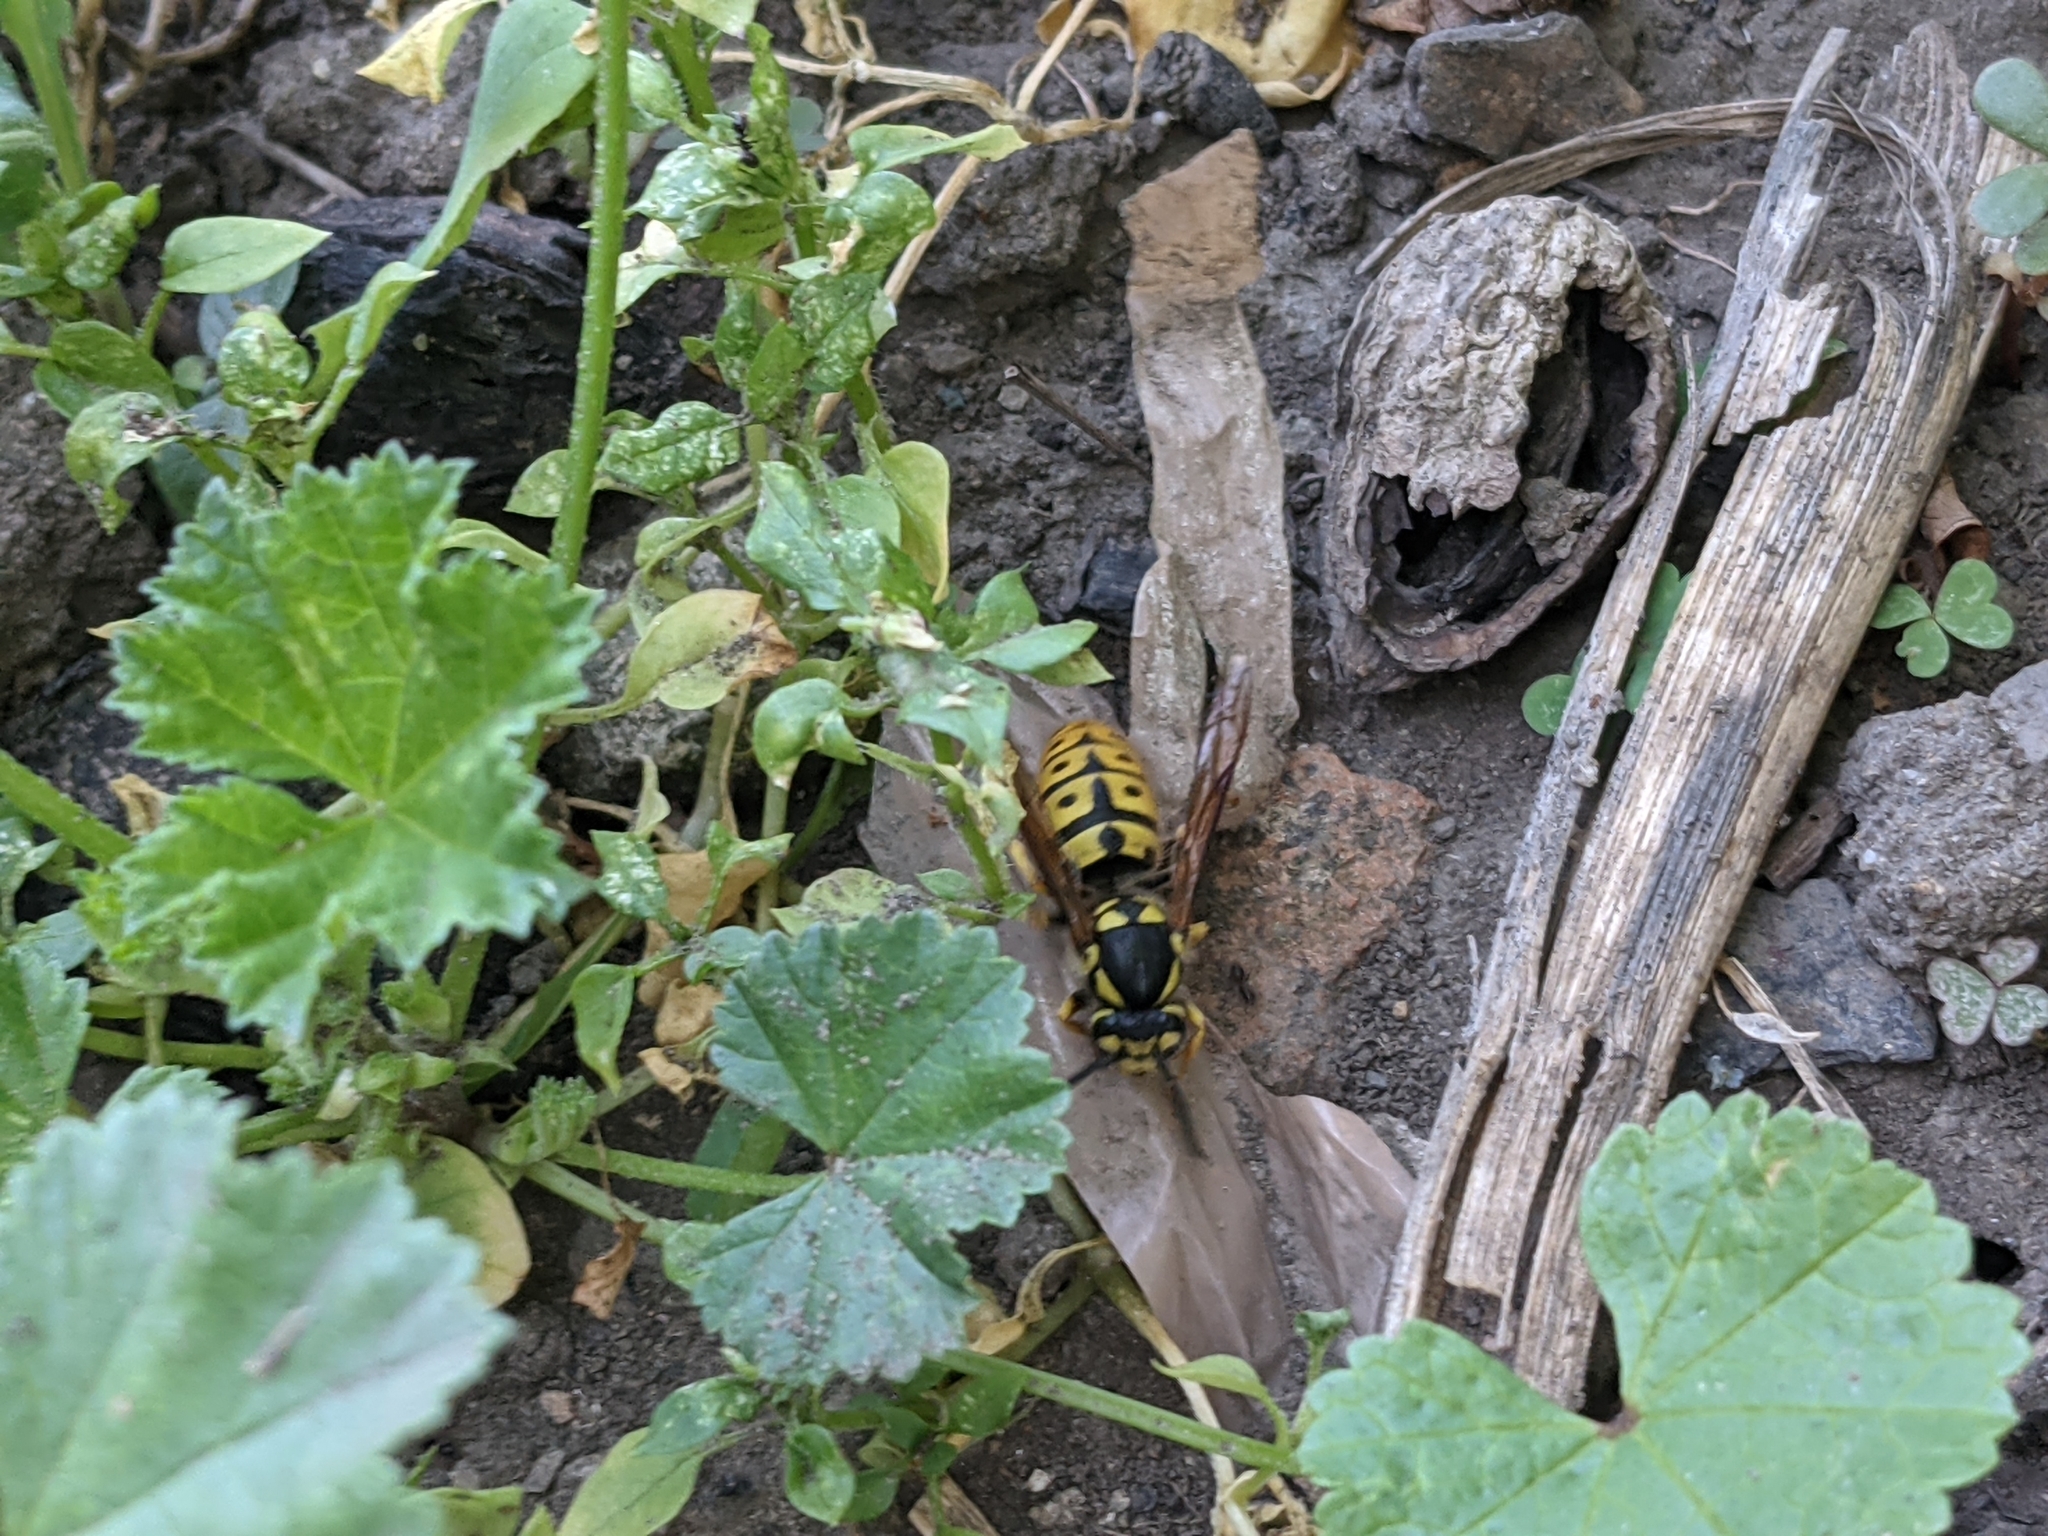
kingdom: Animalia
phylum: Arthropoda
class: Insecta
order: Hymenoptera
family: Vespidae
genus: Vespula
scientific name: Vespula germanica
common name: German wasp
